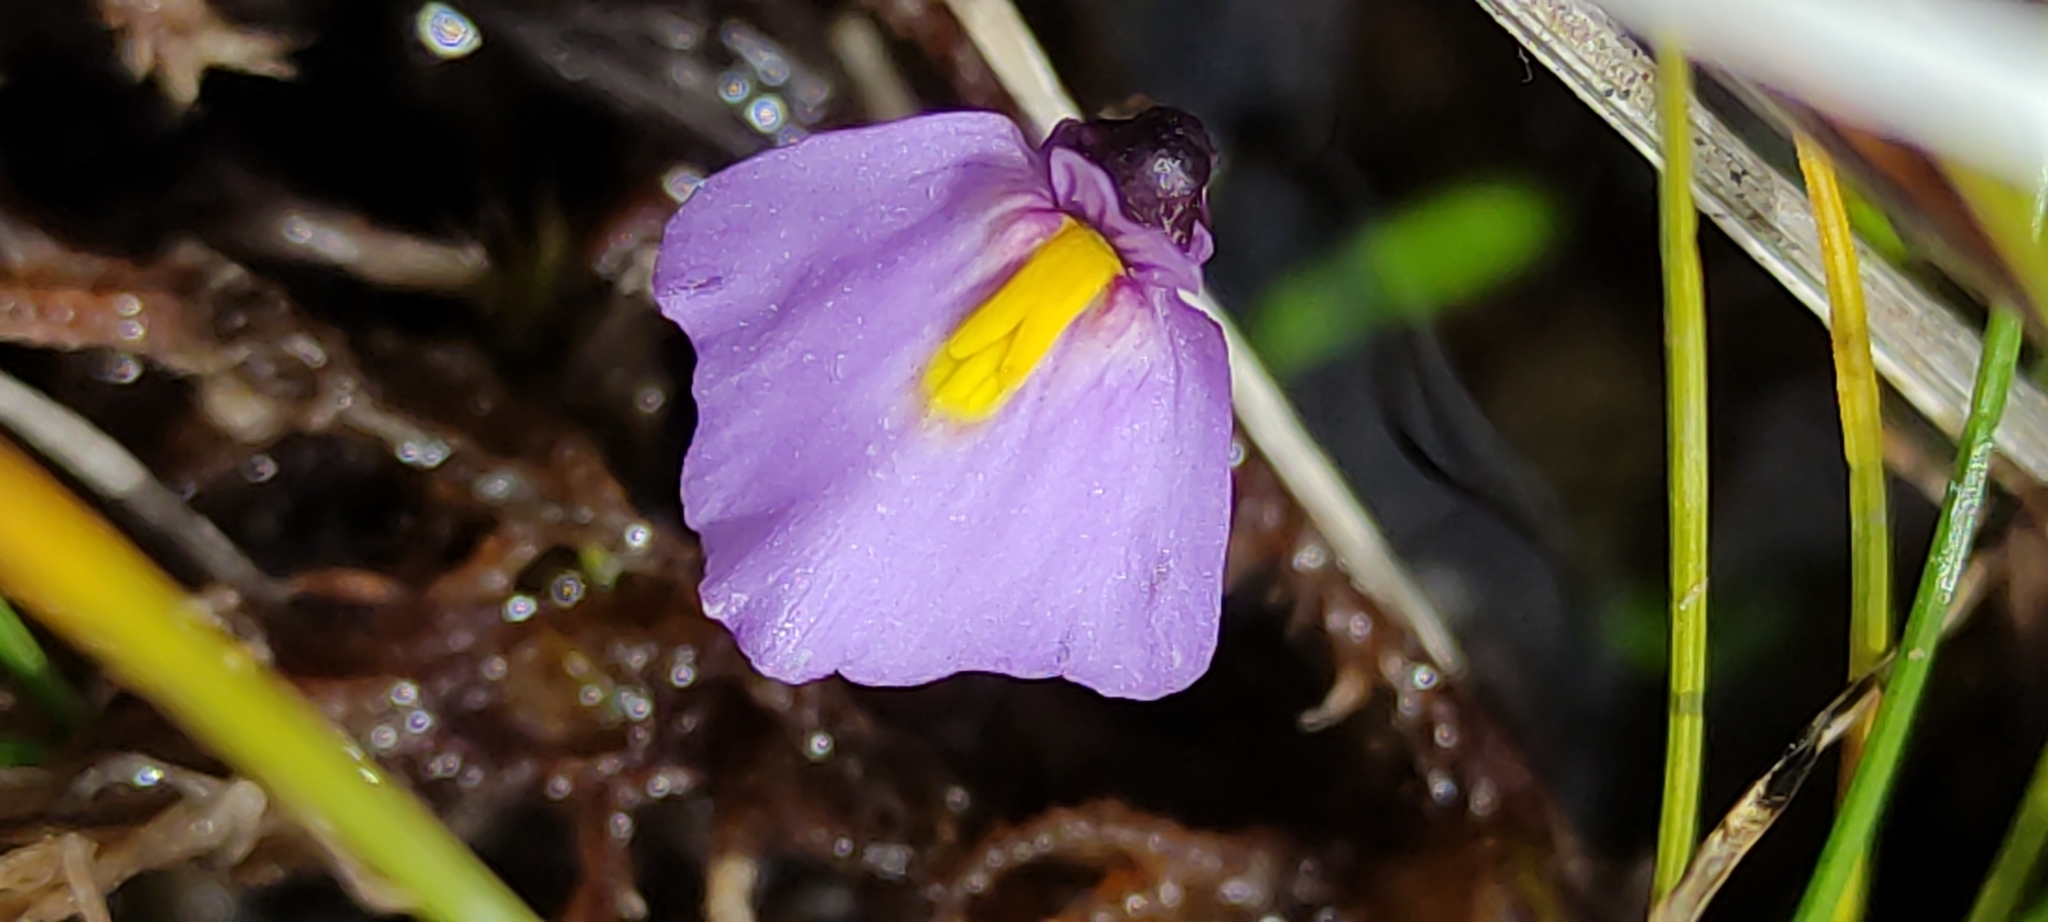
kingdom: Plantae
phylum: Tracheophyta
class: Magnoliopsida
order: Lamiales
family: Lentibulariaceae
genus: Utricularia
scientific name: Utricularia dichotoma
